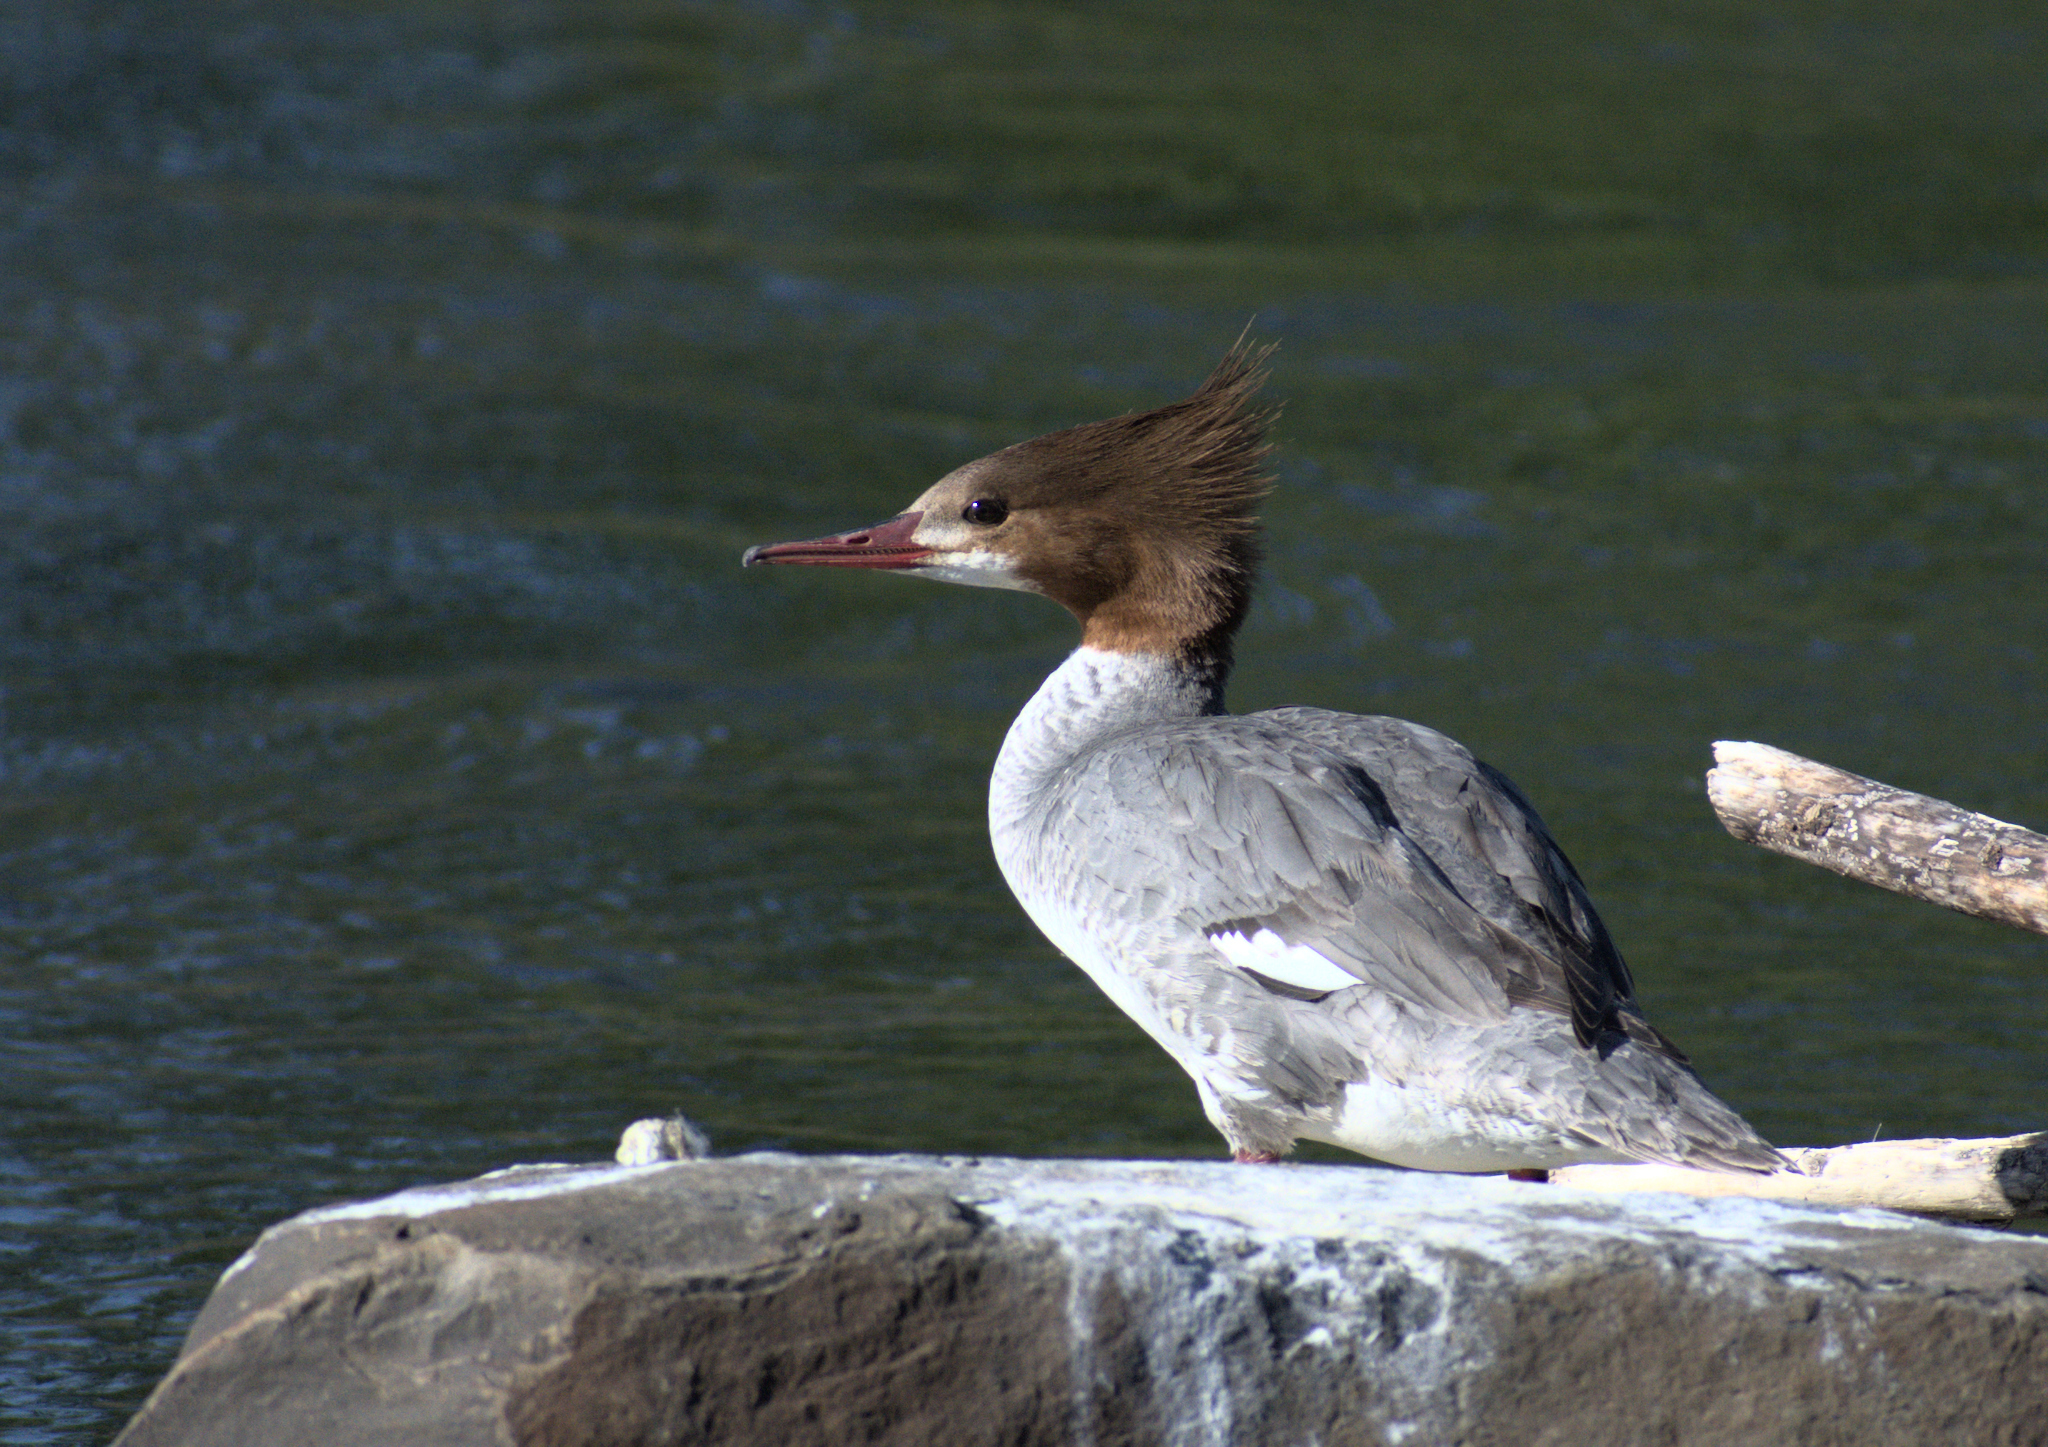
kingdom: Animalia
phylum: Chordata
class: Aves
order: Anseriformes
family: Anatidae
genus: Mergus
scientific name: Mergus merganser
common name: Common merganser
